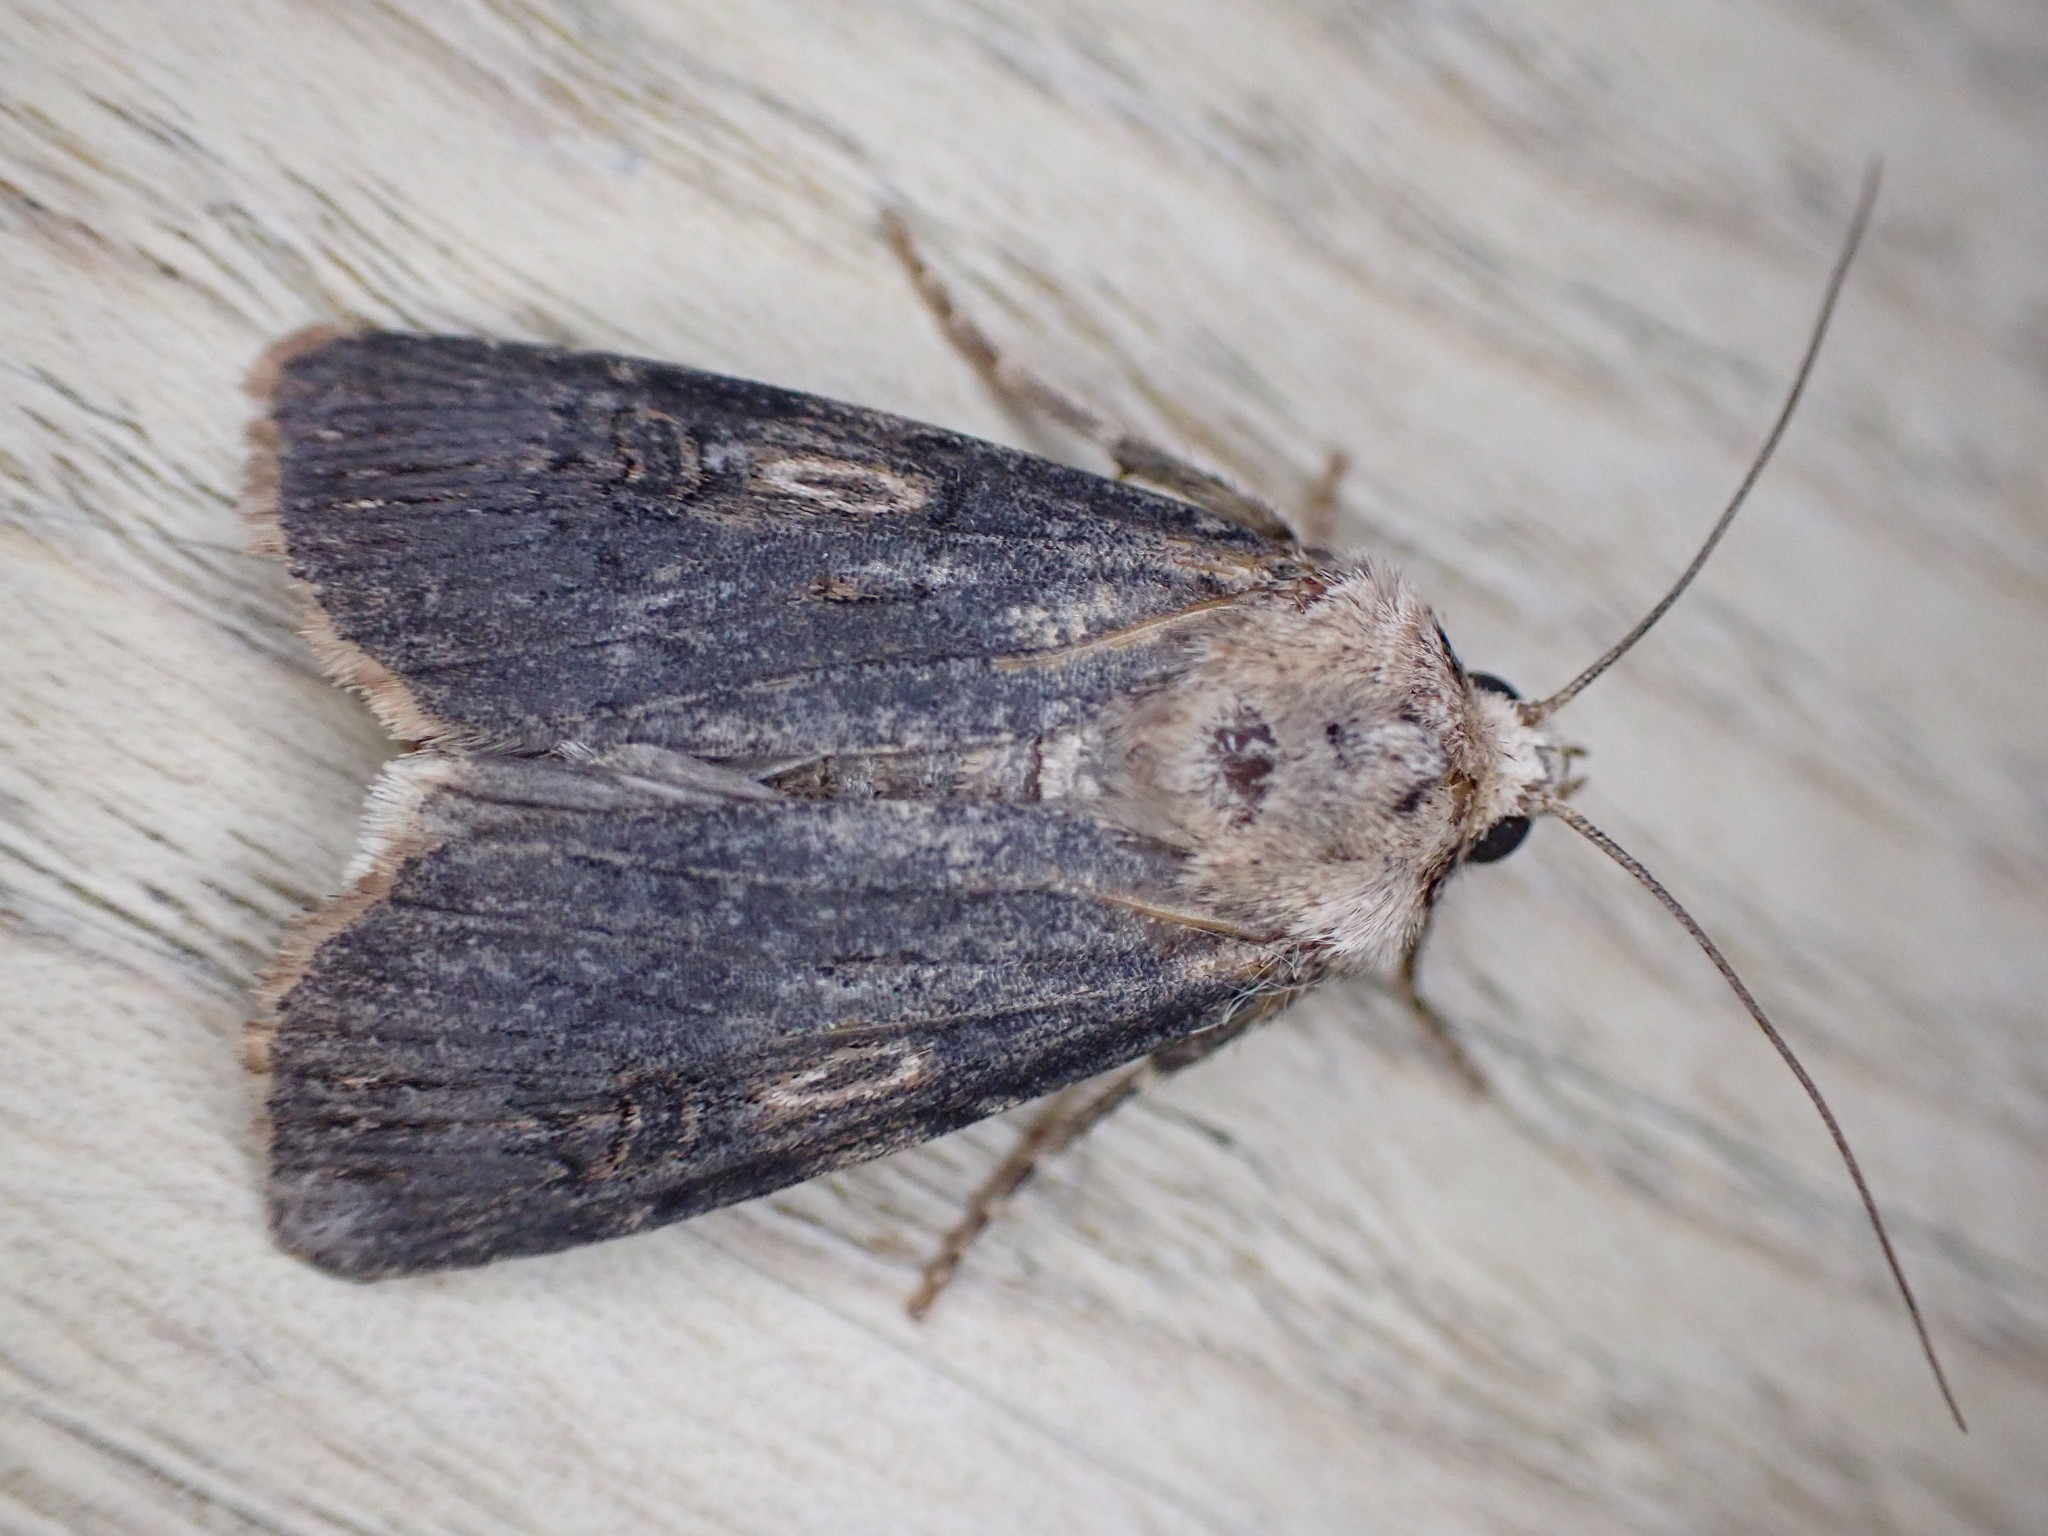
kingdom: Animalia
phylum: Arthropoda
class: Insecta
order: Lepidoptera
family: Noctuidae
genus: Agrotis
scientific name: Agrotis puta
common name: Shuttle-shaped dart
